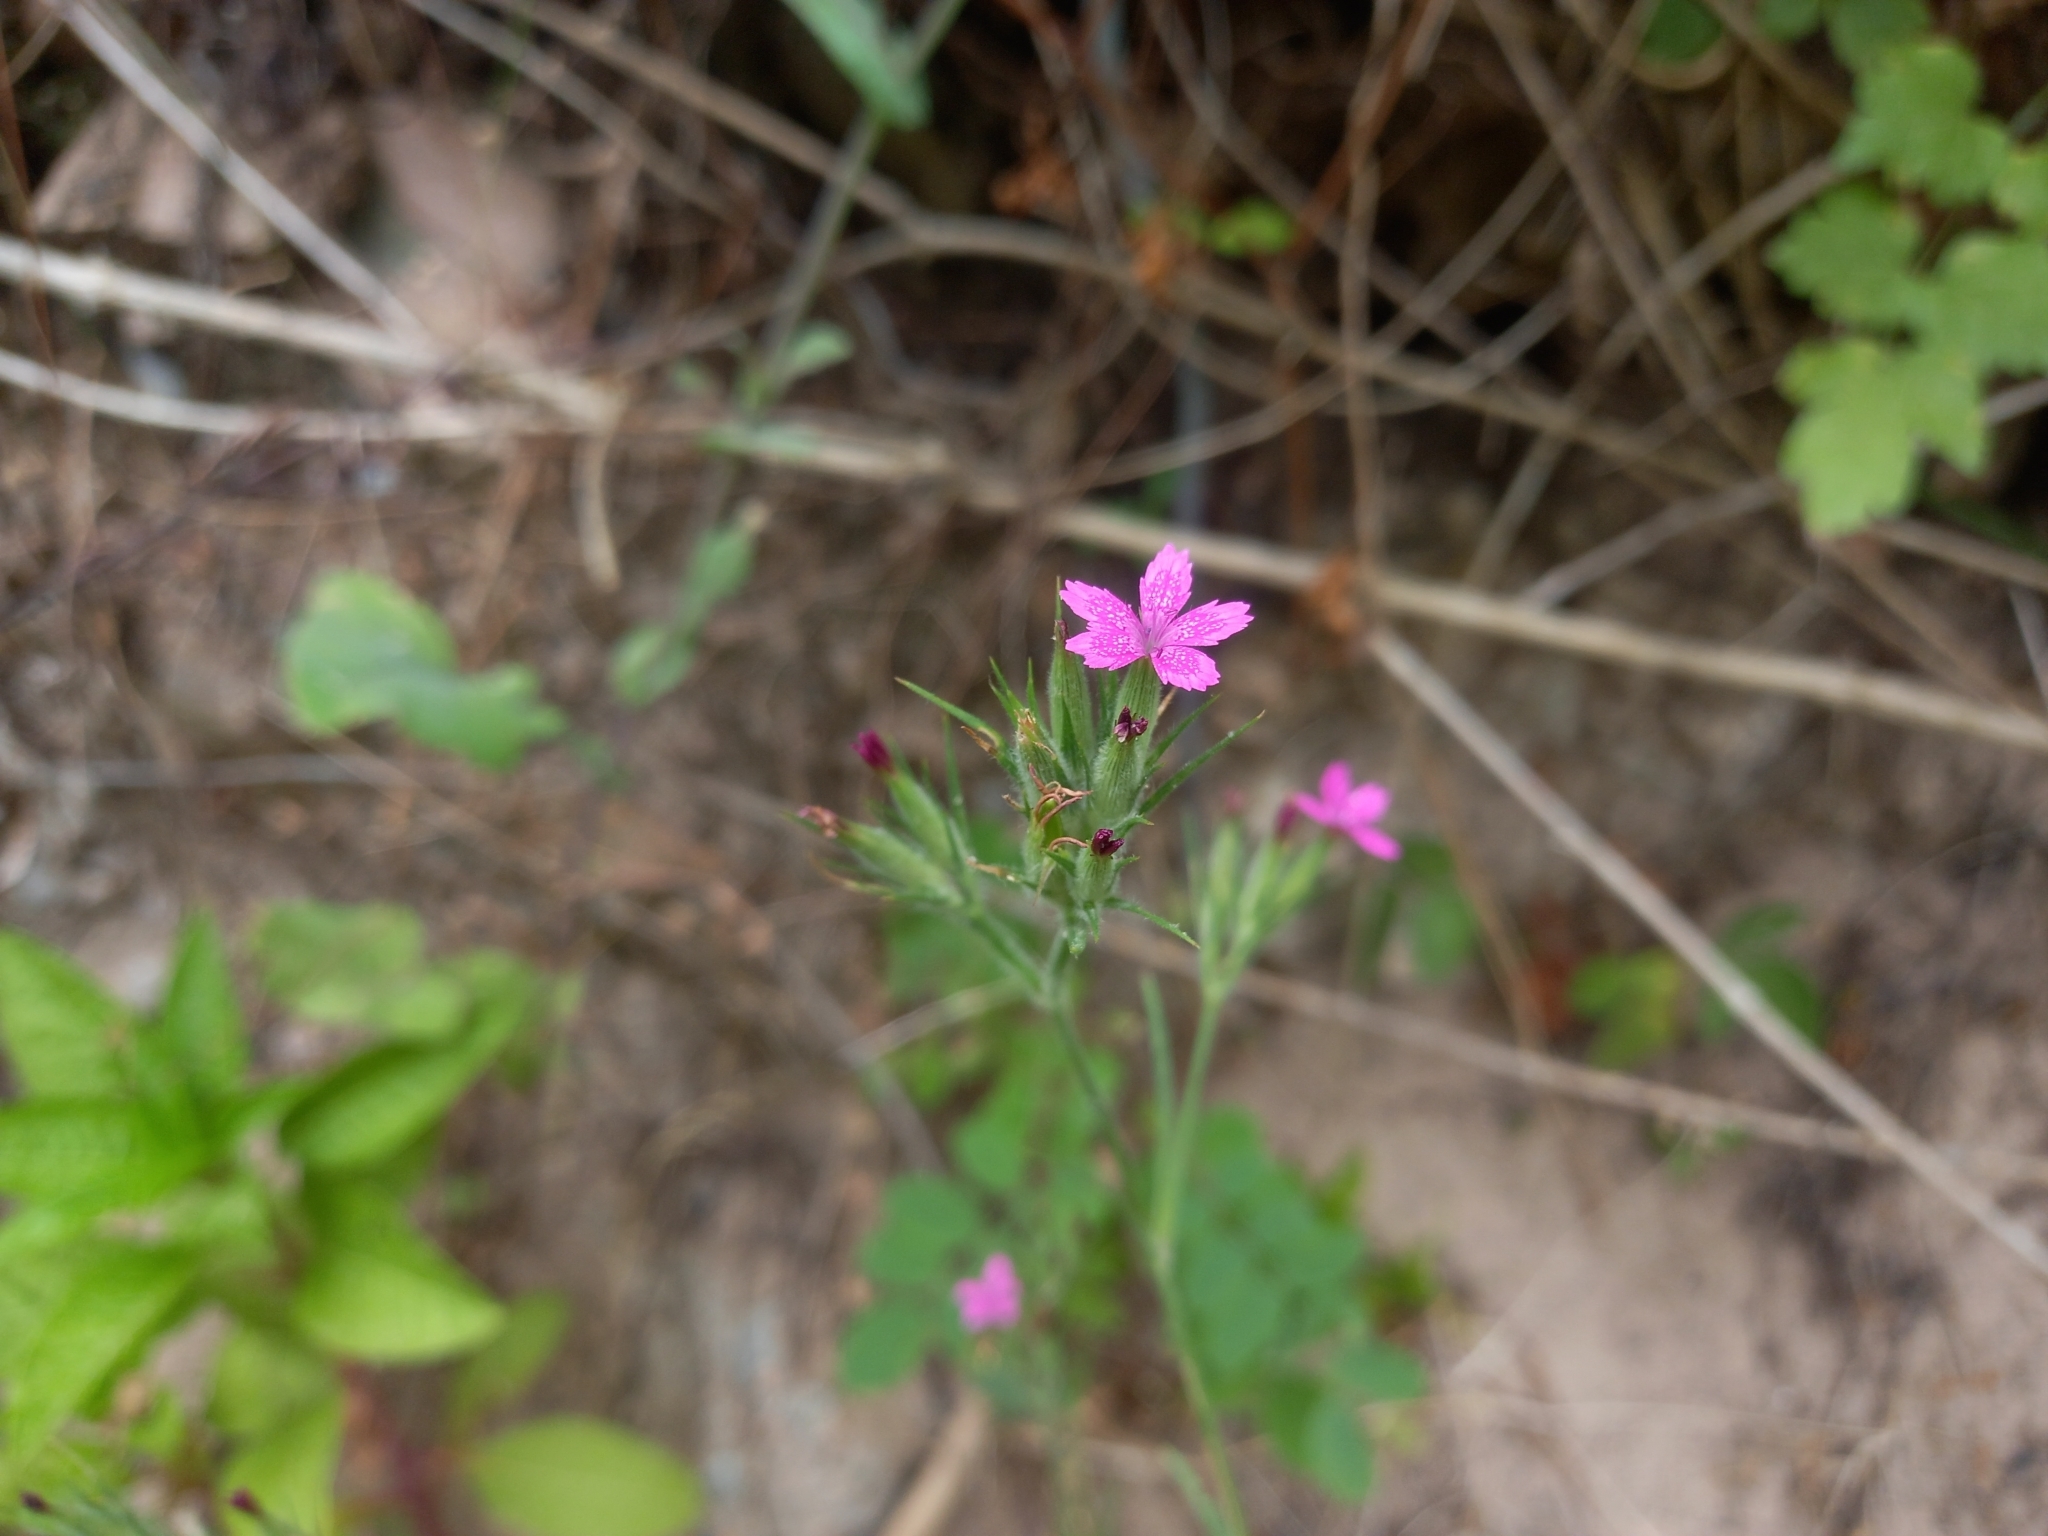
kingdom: Plantae
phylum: Tracheophyta
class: Magnoliopsida
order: Caryophyllales
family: Caryophyllaceae
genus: Dianthus
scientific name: Dianthus armeria
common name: Deptford pink
